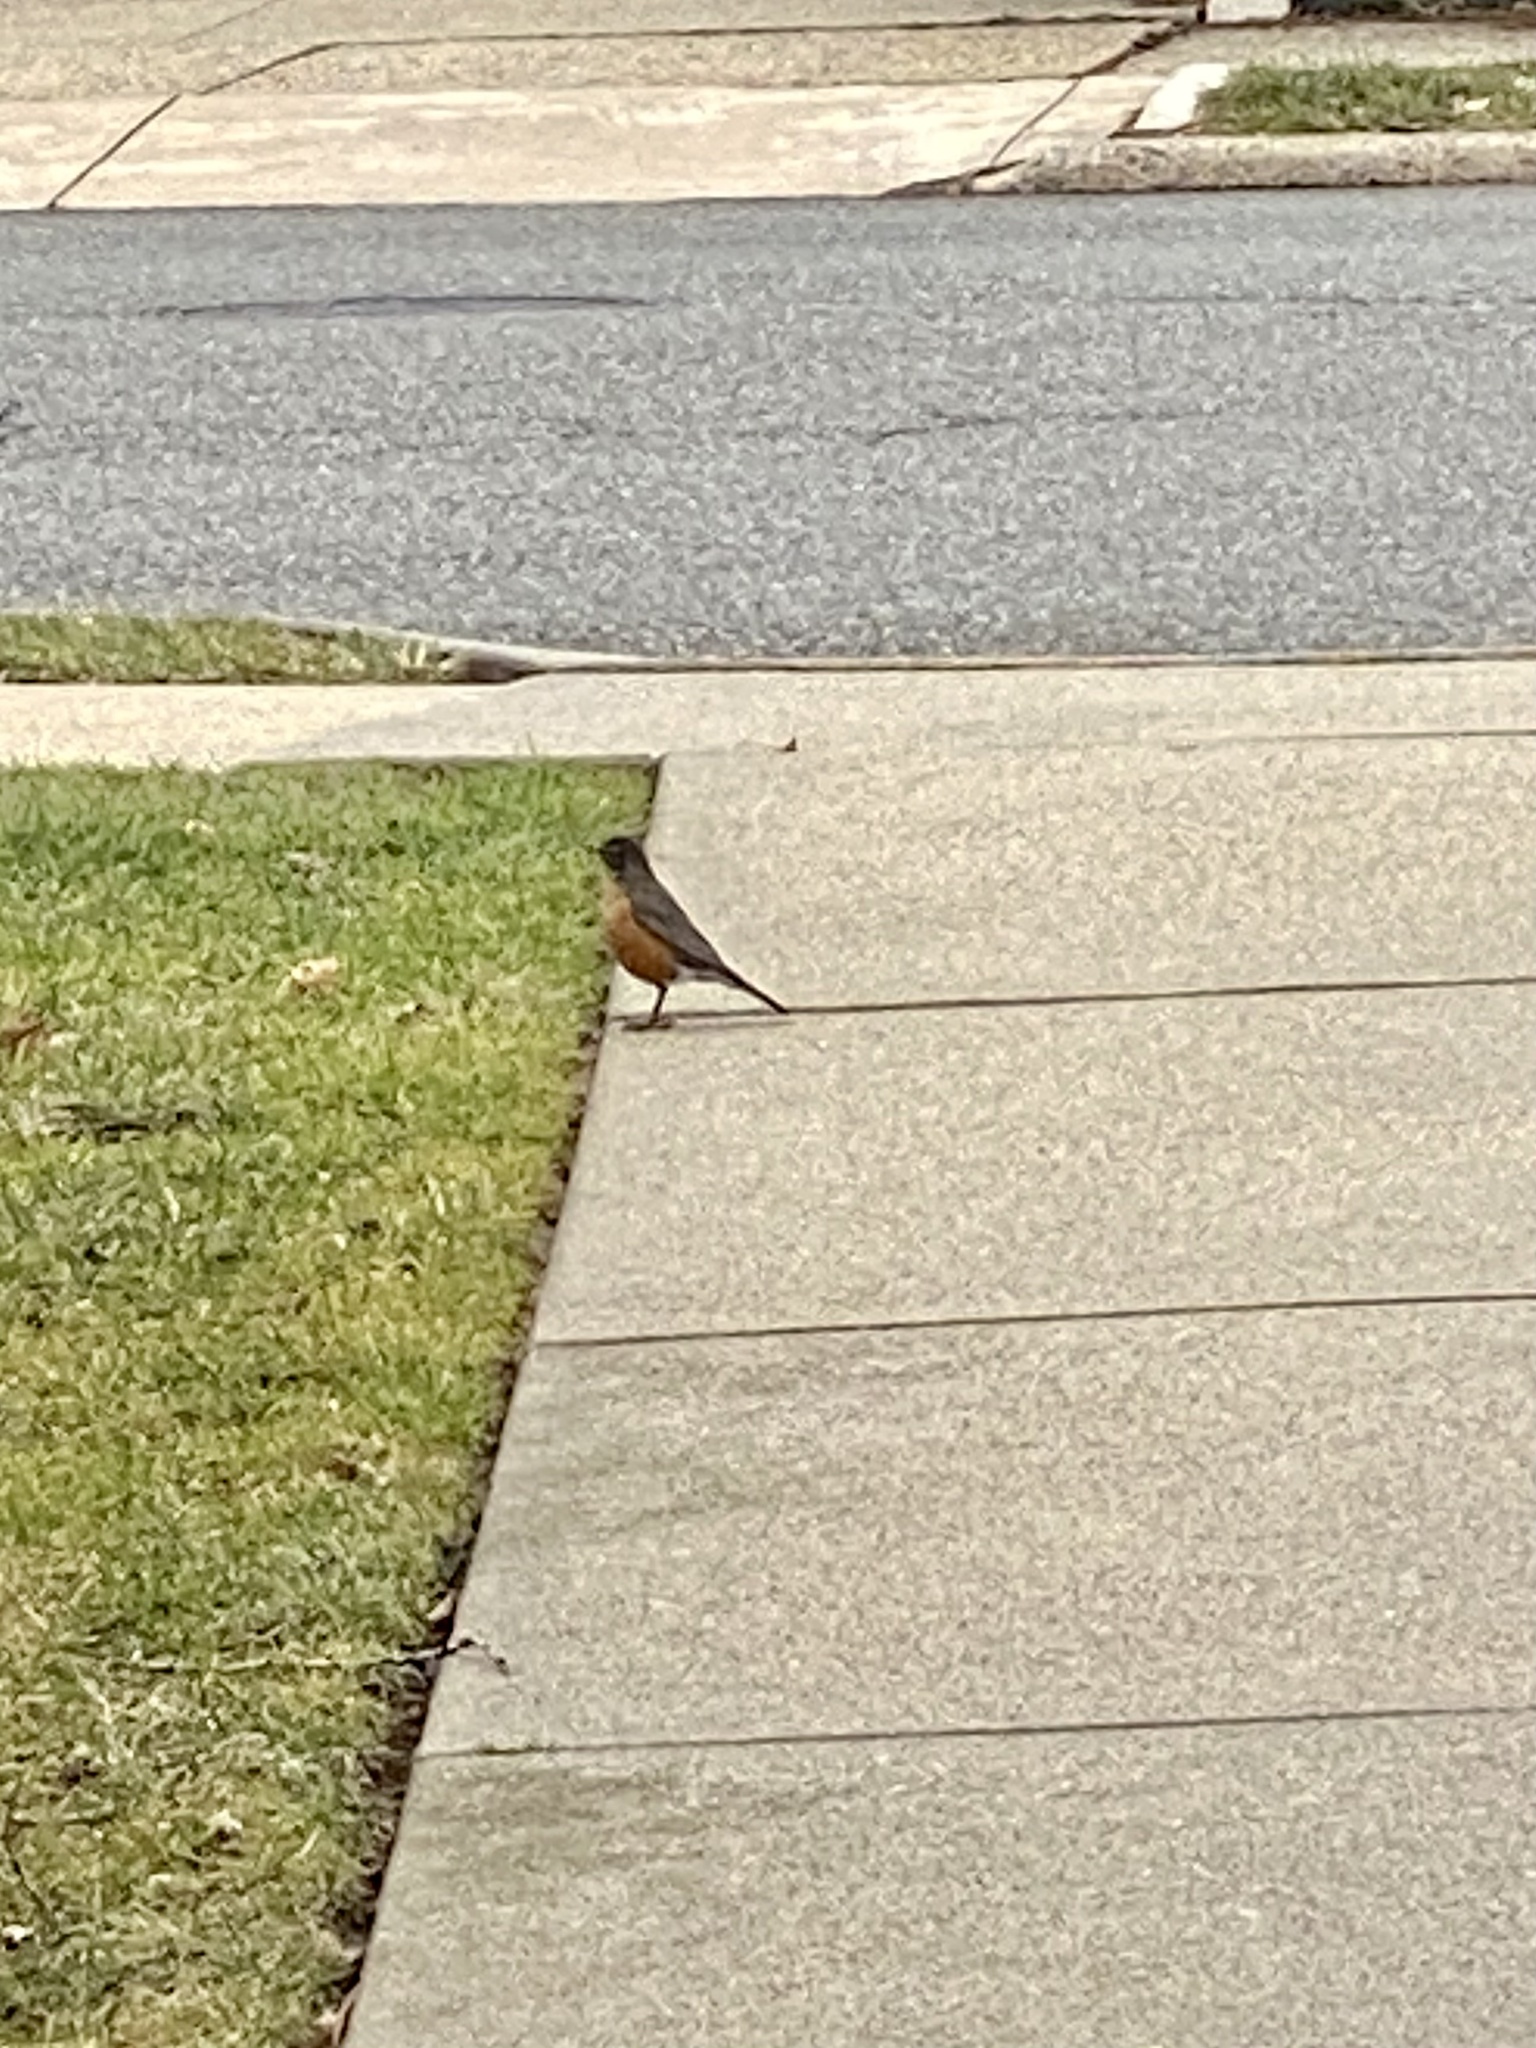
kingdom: Animalia
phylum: Chordata
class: Aves
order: Passeriformes
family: Turdidae
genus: Turdus
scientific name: Turdus migratorius
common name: American robin
